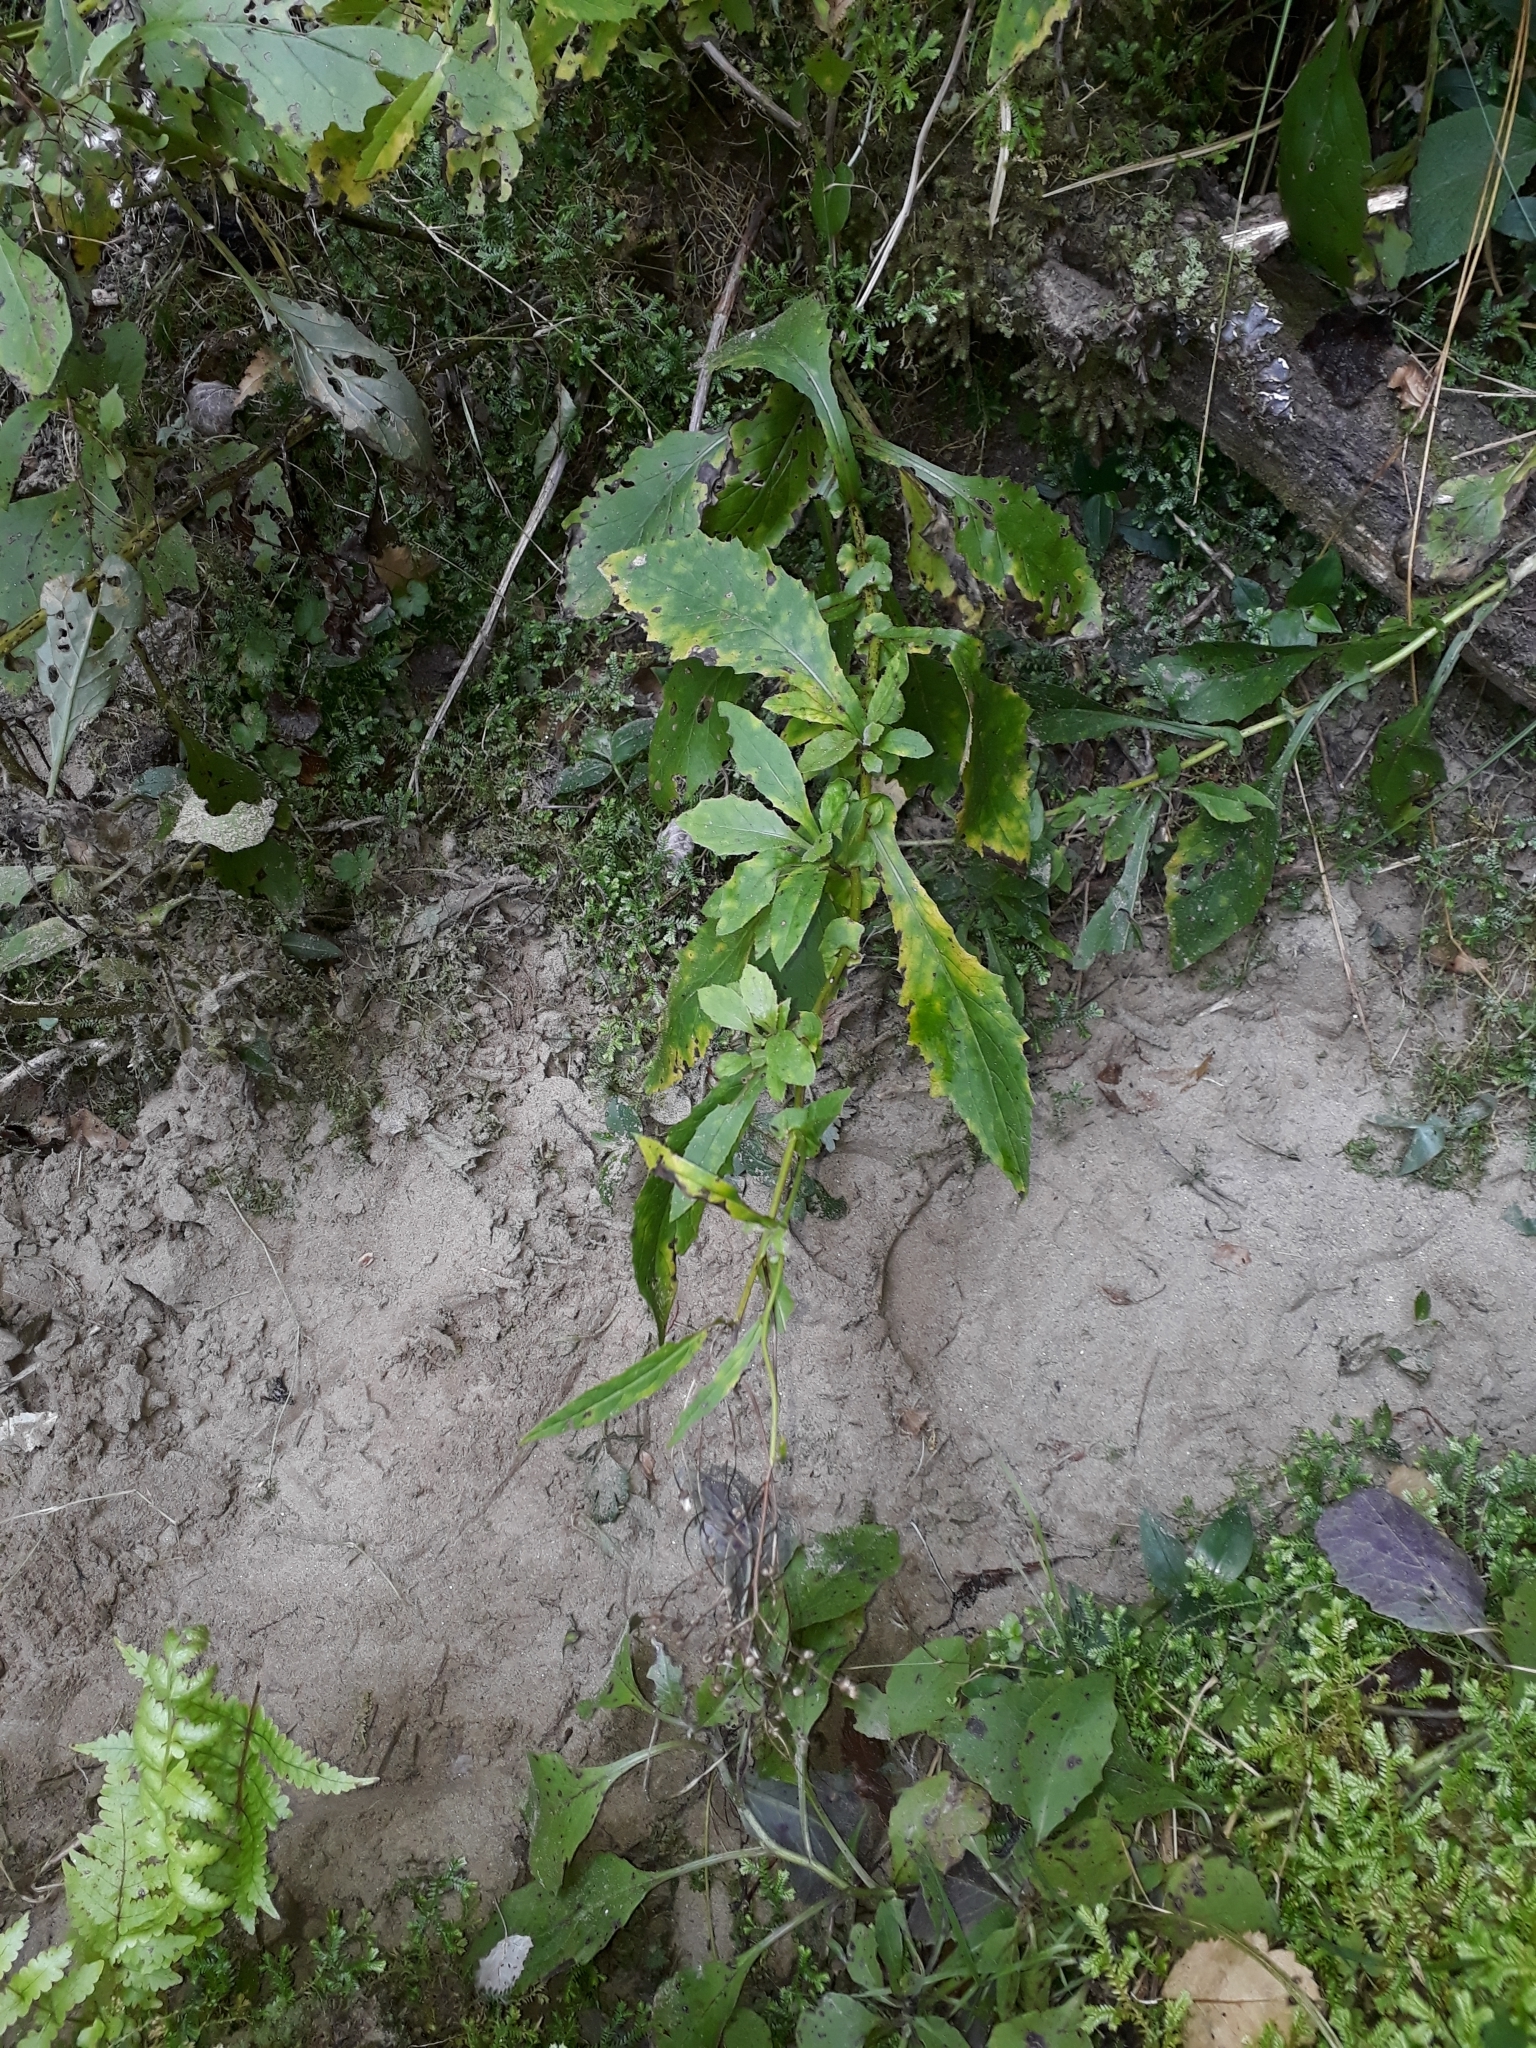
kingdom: Plantae
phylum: Tracheophyta
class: Magnoliopsida
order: Asterales
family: Asteraceae
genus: Senecio
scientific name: Senecio rufiglandulosus
